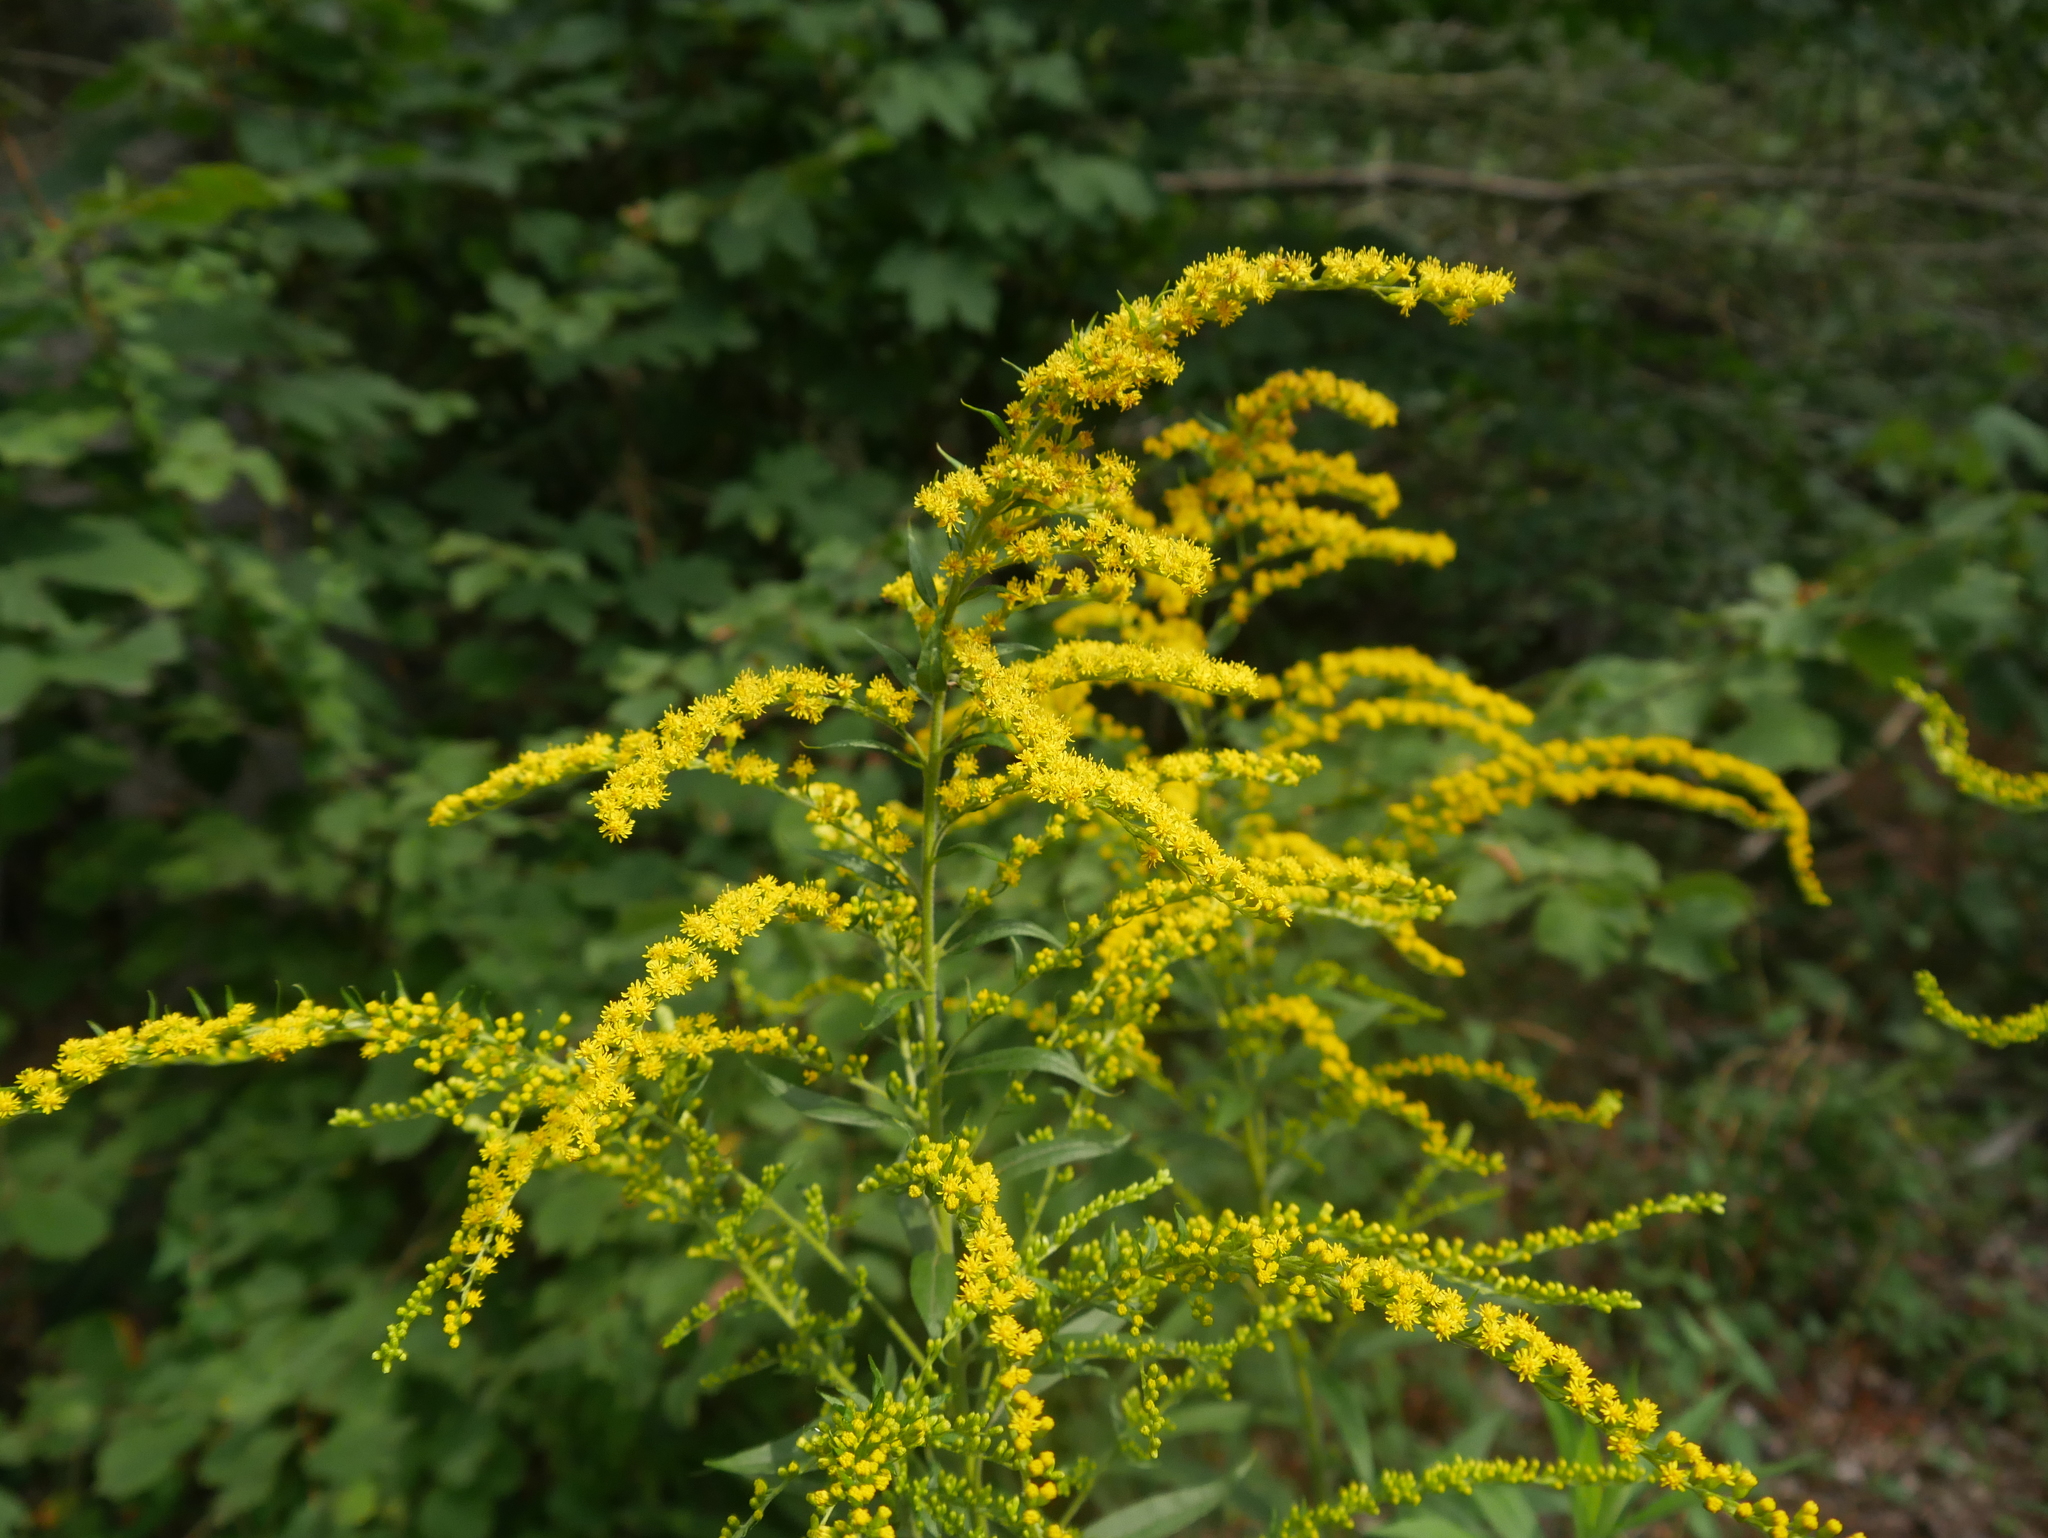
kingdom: Plantae
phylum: Tracheophyta
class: Magnoliopsida
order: Asterales
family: Asteraceae
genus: Solidago
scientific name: Solidago canadensis
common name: Canada goldenrod
